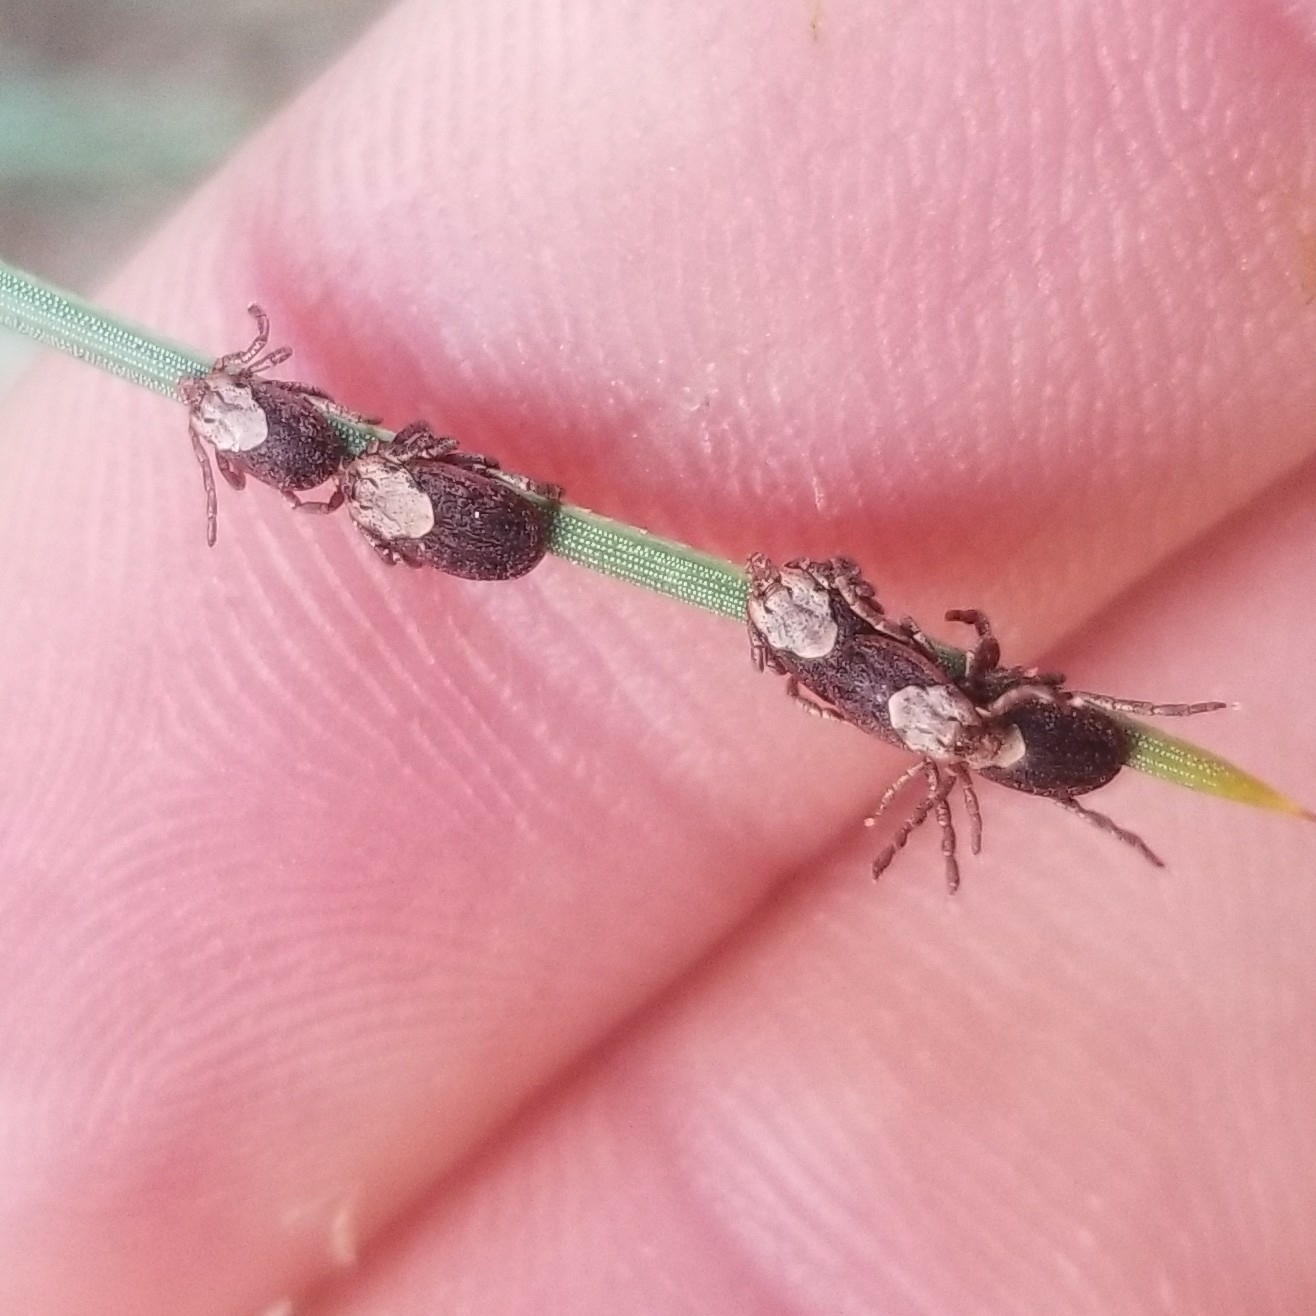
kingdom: Animalia
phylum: Arthropoda
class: Arachnida
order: Ixodida
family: Ixodidae
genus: Dermacentor
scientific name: Dermacentor occidentalis
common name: Net tick
